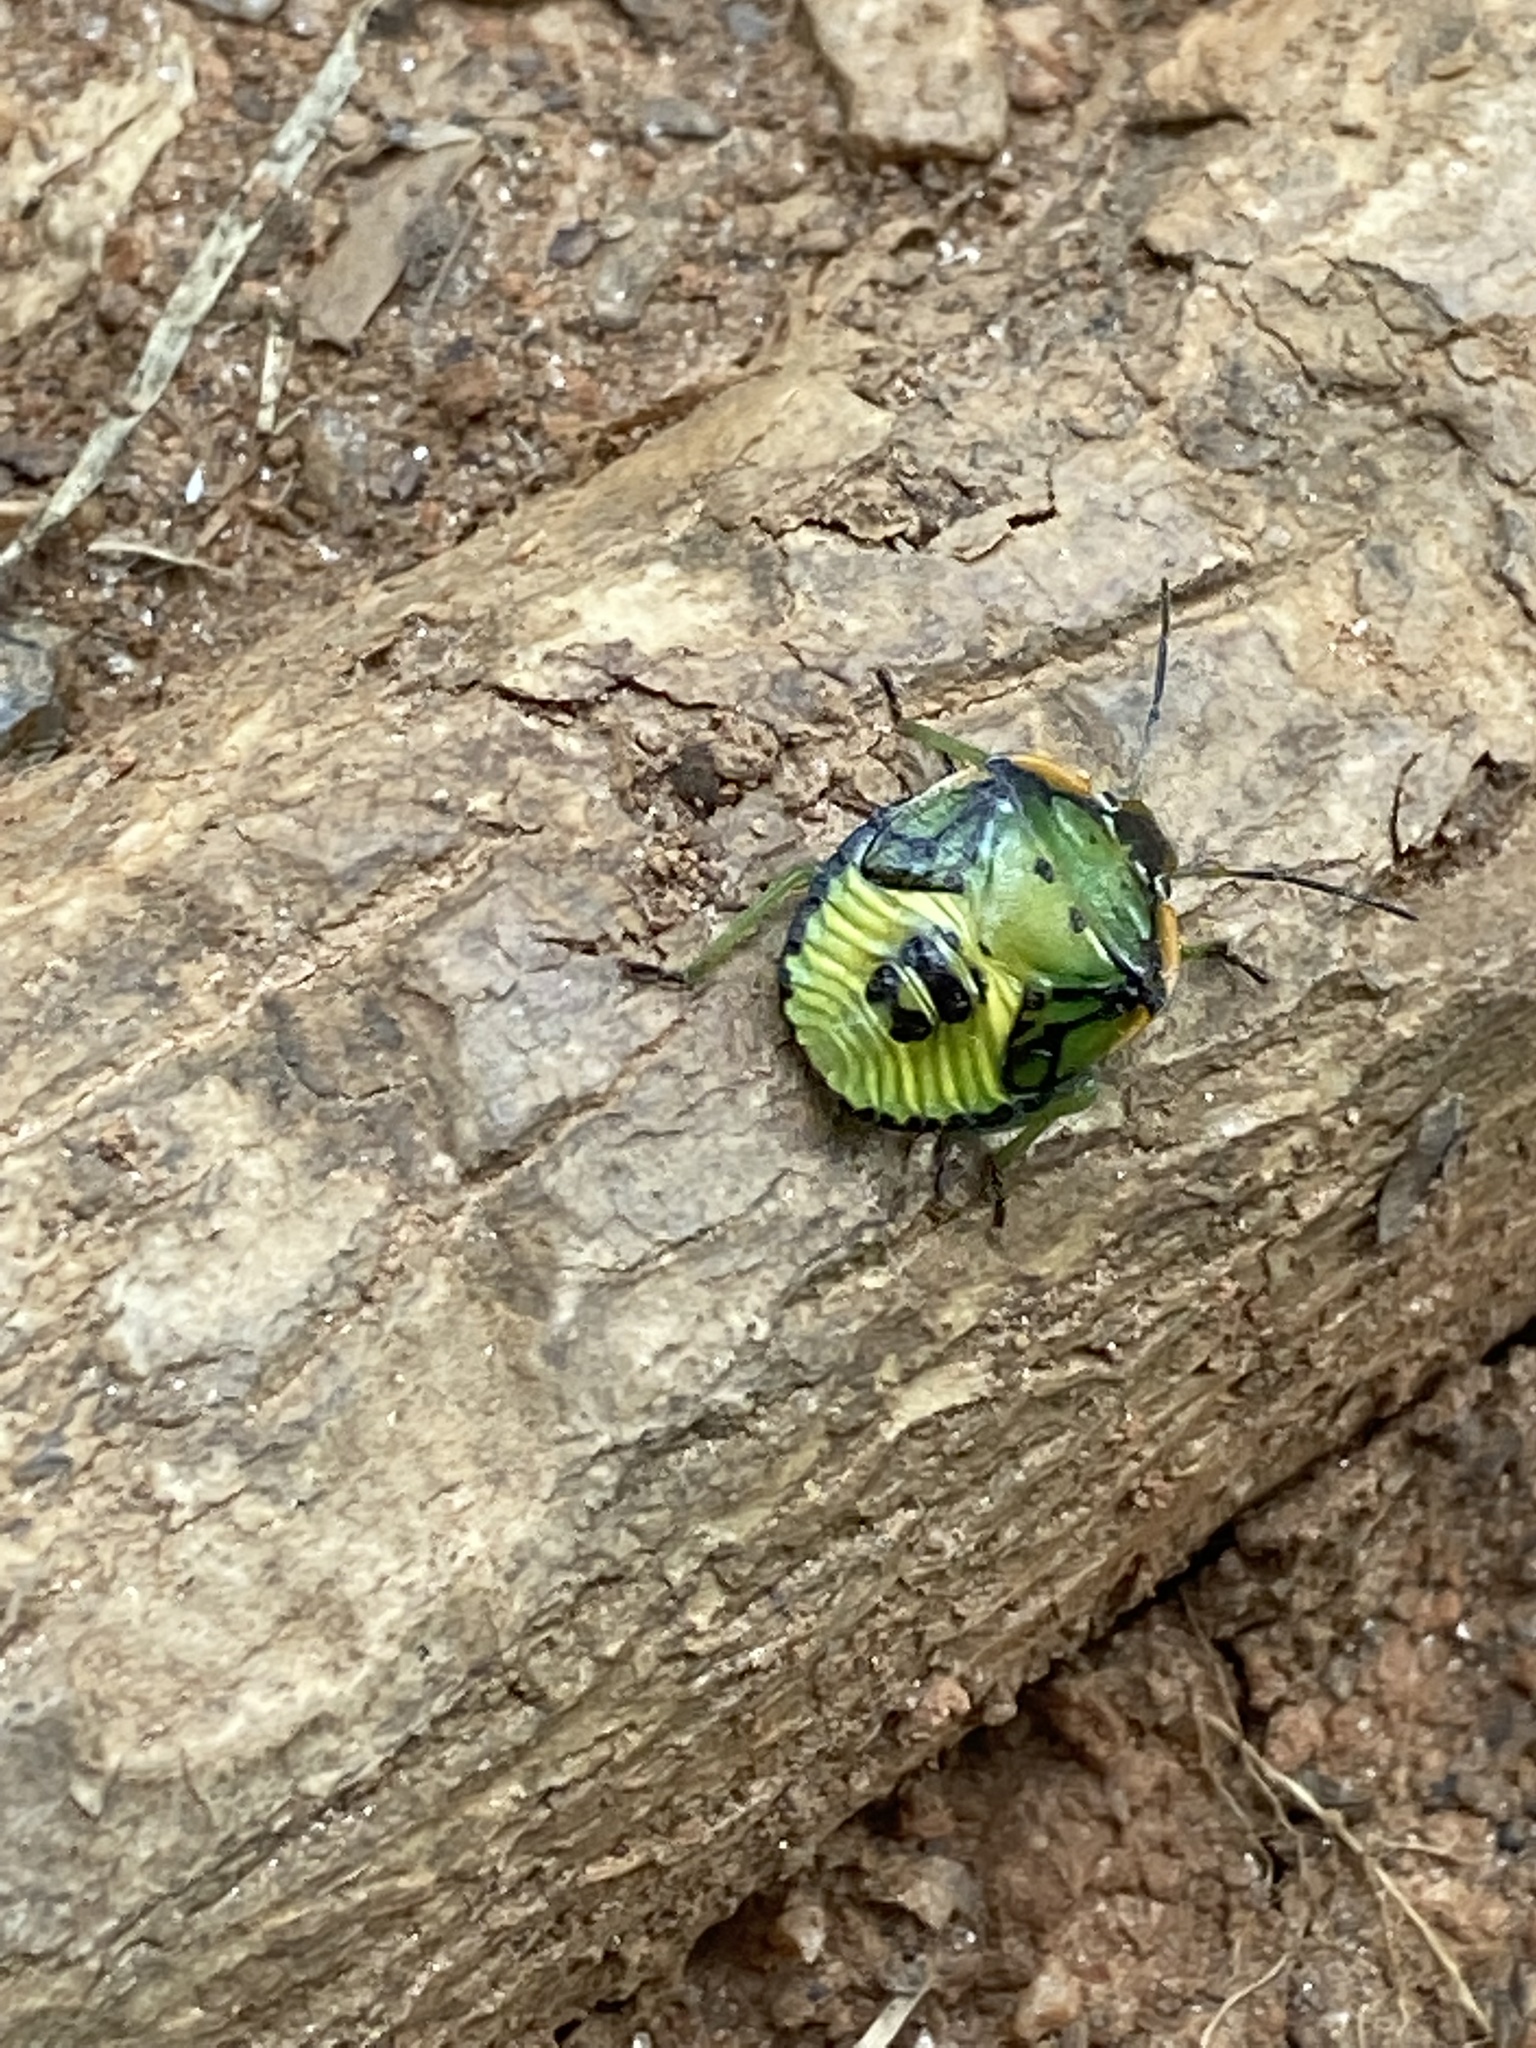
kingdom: Animalia
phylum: Arthropoda
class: Insecta
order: Hemiptera
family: Pentatomidae
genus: Chinavia
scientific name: Chinavia hilaris
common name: Green stink bug
